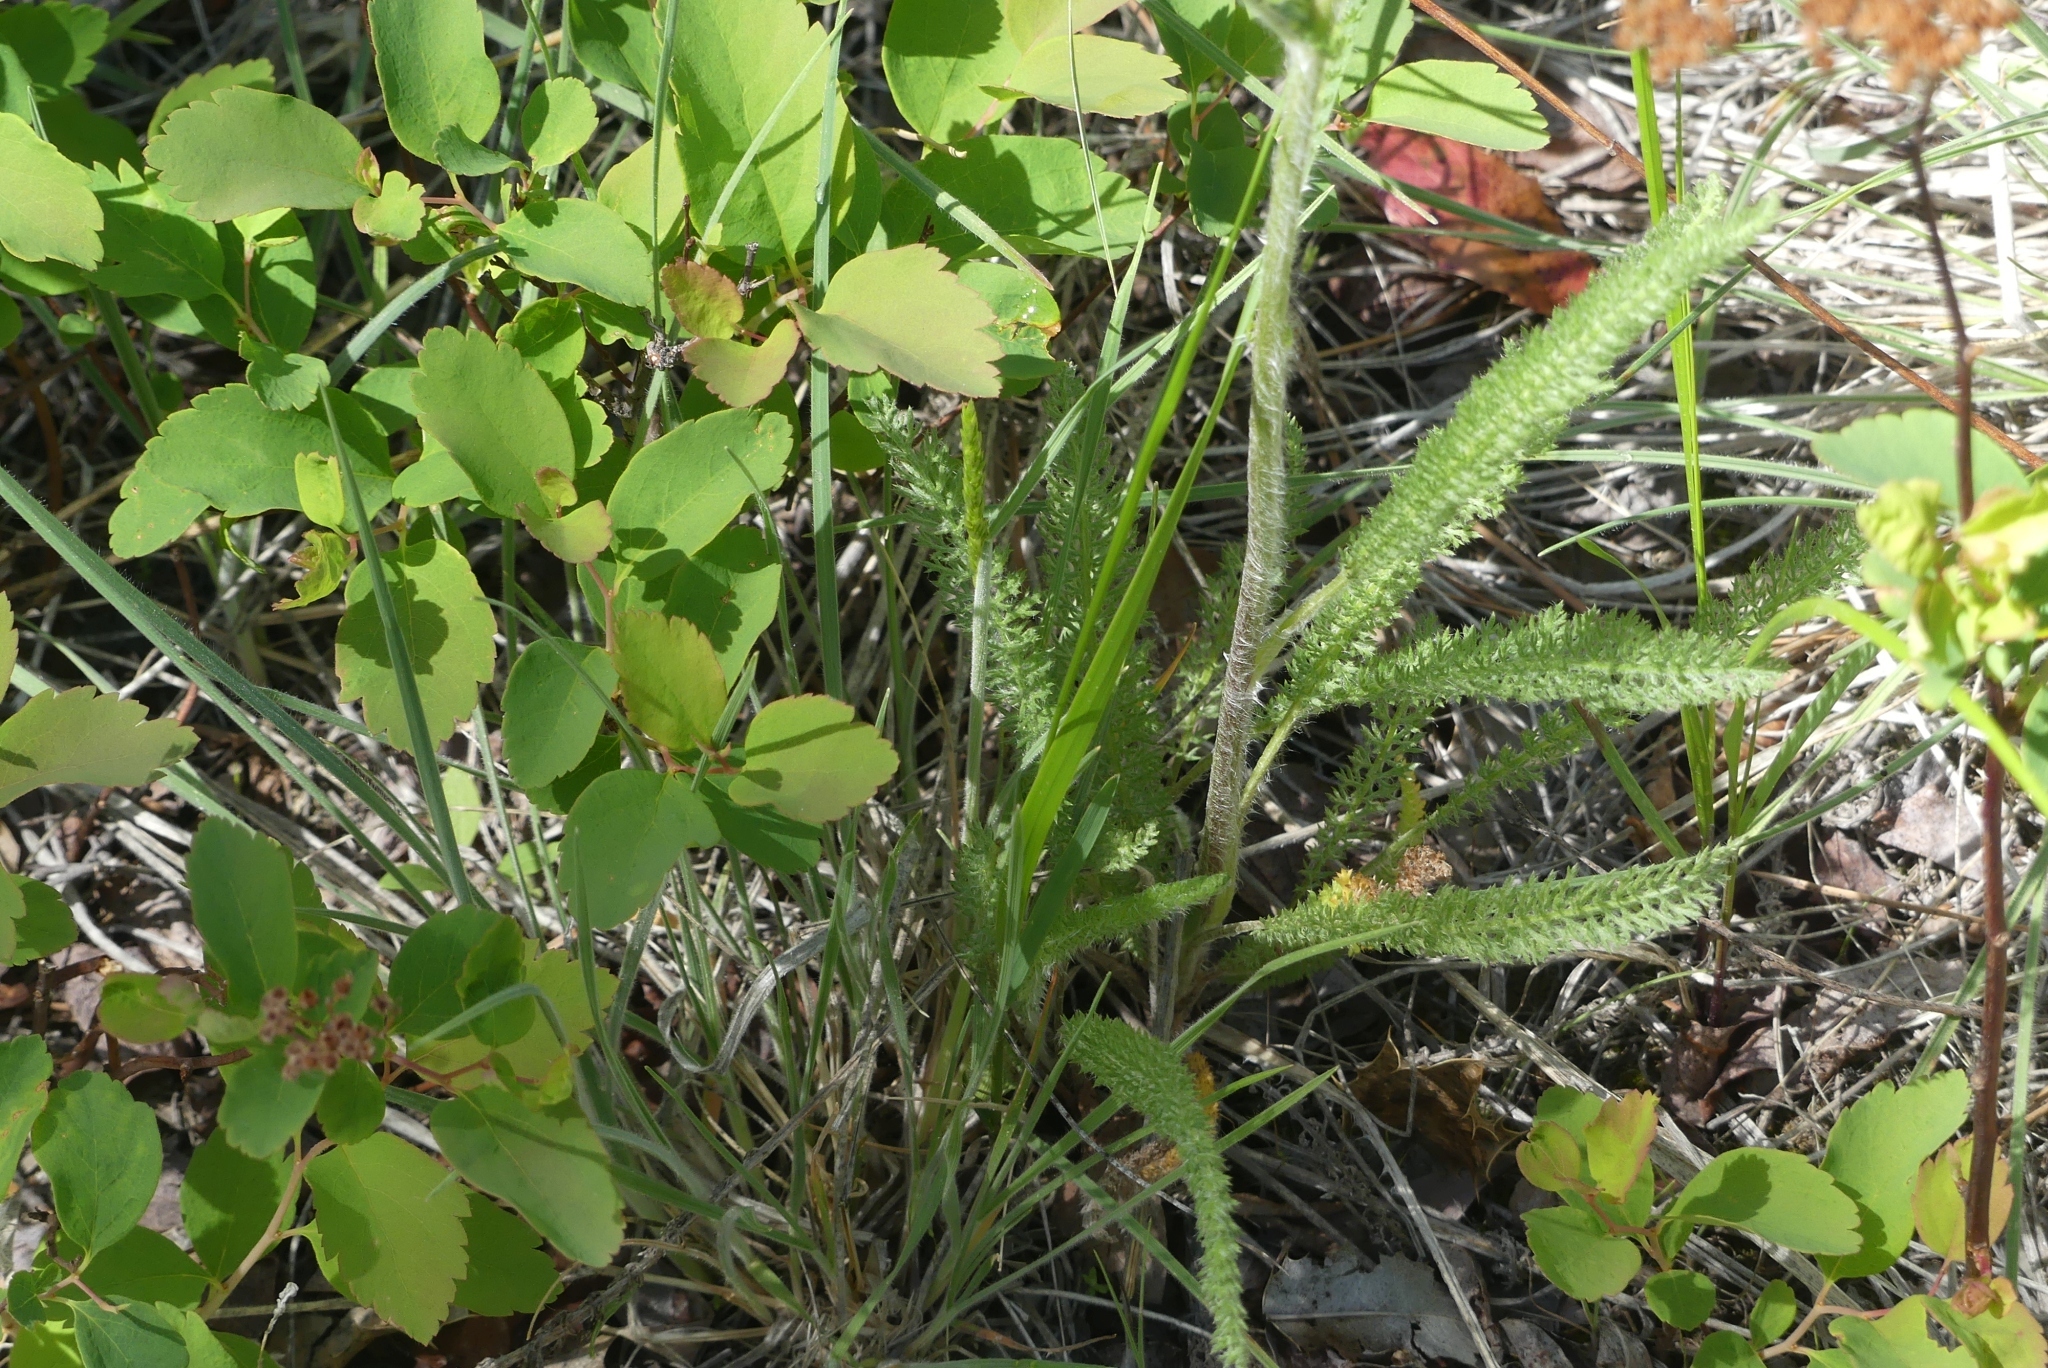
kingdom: Plantae
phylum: Tracheophyta
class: Magnoliopsida
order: Asterales
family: Asteraceae
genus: Achillea
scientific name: Achillea millefolium
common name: Yarrow
